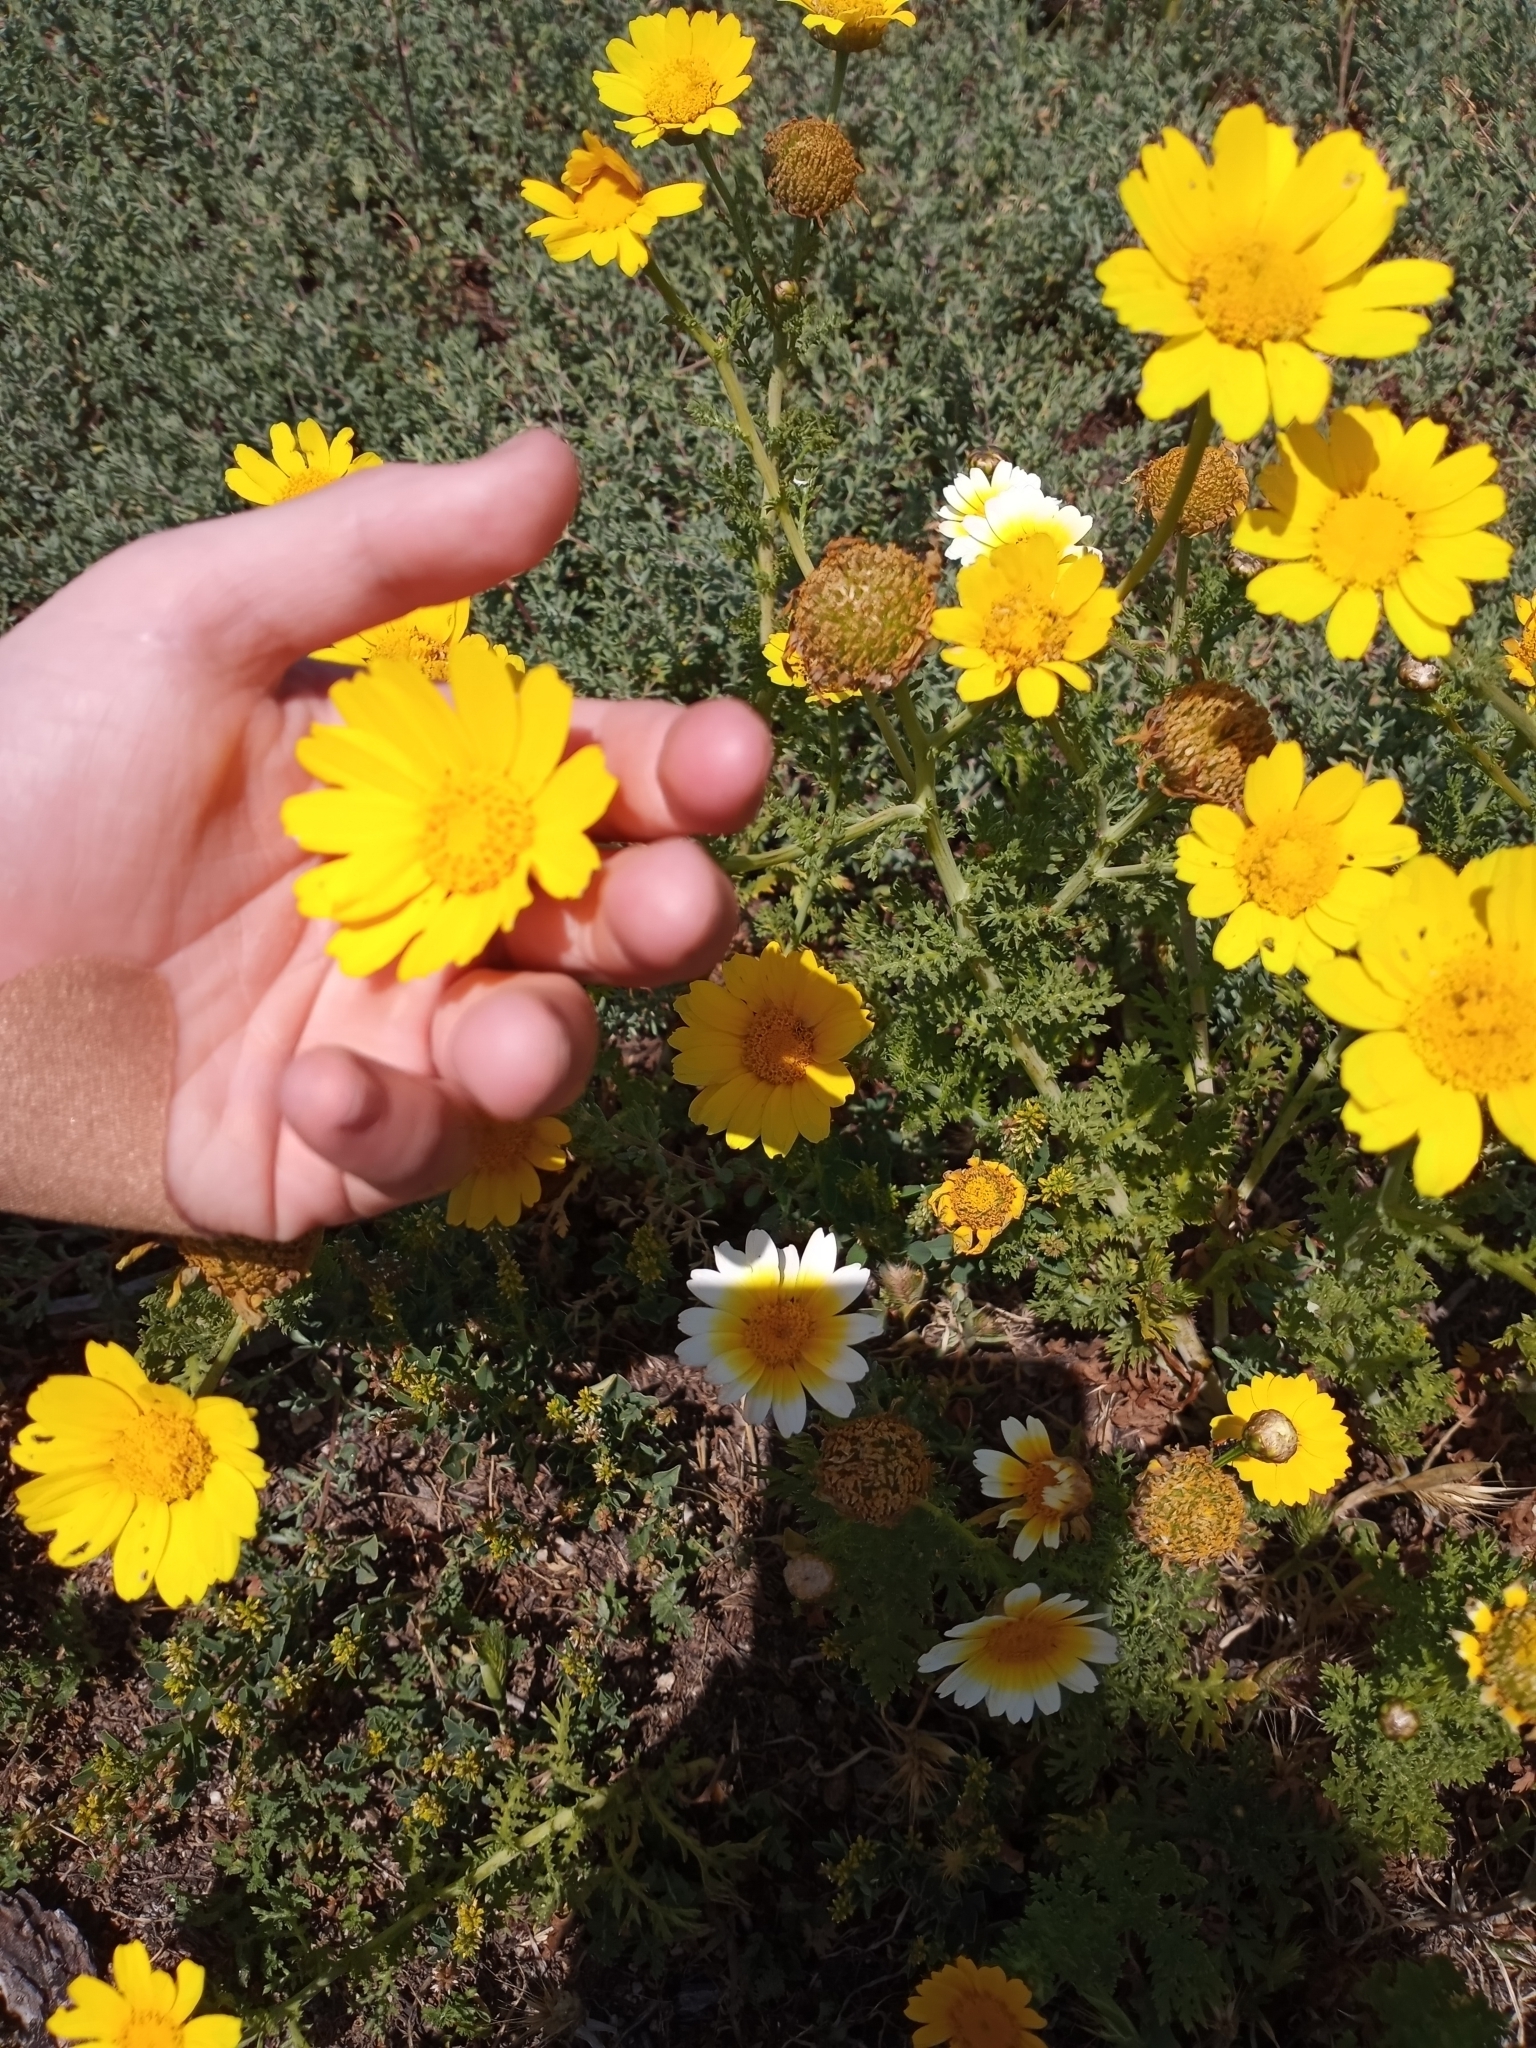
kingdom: Plantae
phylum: Tracheophyta
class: Magnoliopsida
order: Asterales
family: Asteraceae
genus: Glebionis
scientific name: Glebionis coronaria
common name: Crowndaisy
